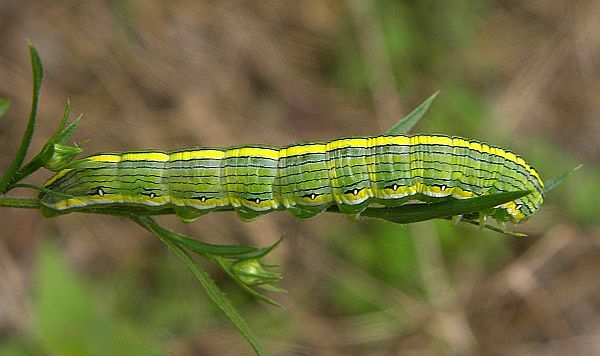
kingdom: Animalia
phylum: Arthropoda
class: Insecta
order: Lepidoptera
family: Noctuidae
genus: Cucullia
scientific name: Cucullia asteroides
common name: Asteroid moth
